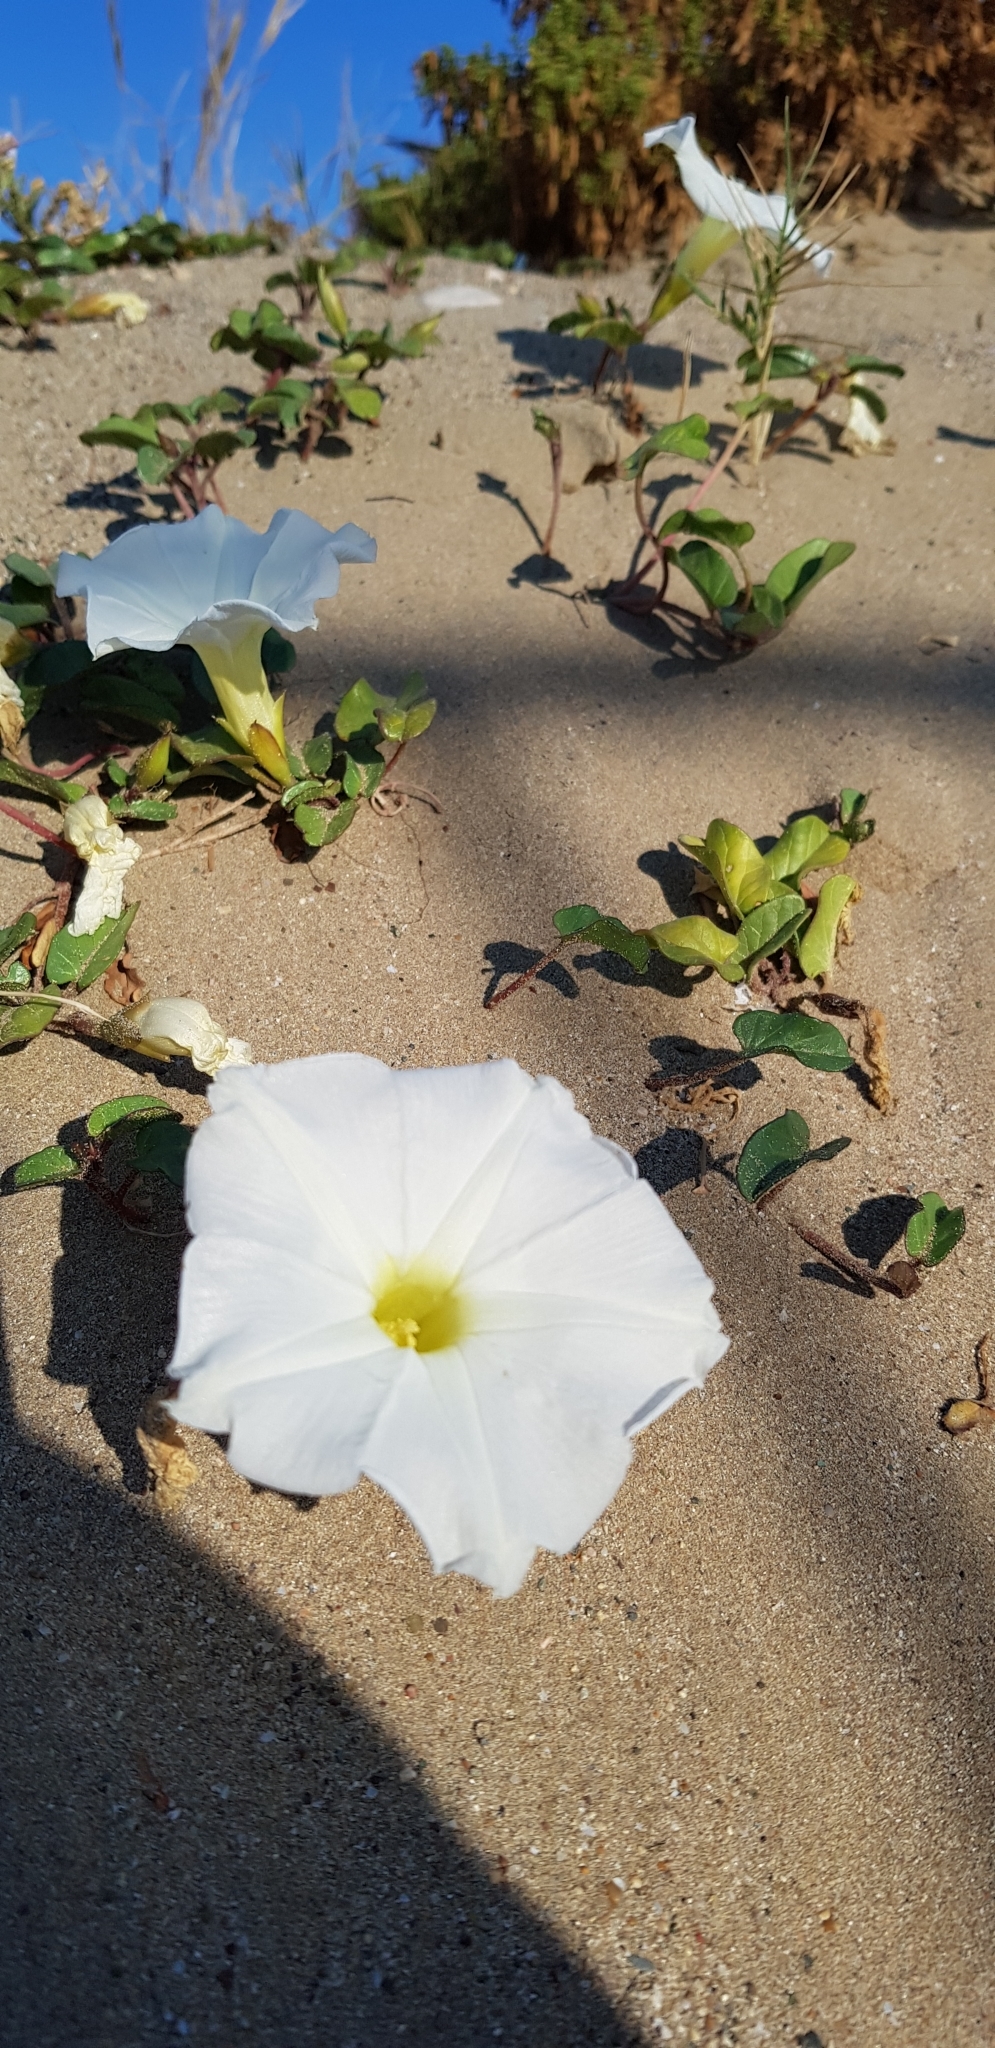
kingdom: Plantae
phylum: Tracheophyta
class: Magnoliopsida
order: Solanales
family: Convolvulaceae
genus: Ipomoea
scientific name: Ipomoea imperati
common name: Fiddle-leaf morning-glory
